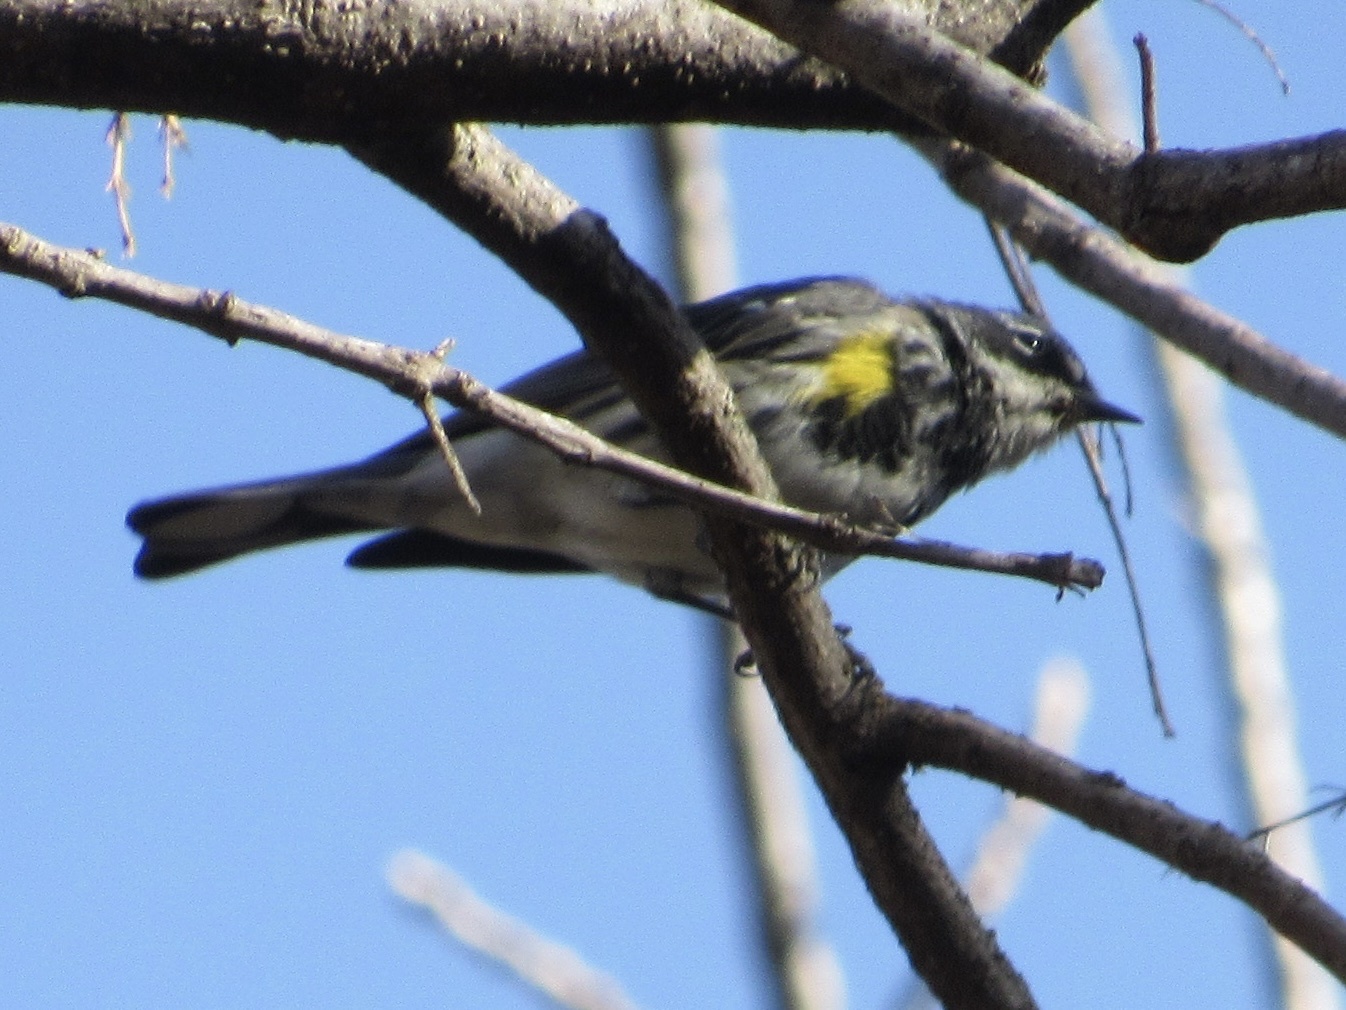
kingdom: Animalia
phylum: Chordata
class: Aves
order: Passeriformes
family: Parulidae
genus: Setophaga
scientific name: Setophaga coronata
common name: Myrtle warbler
